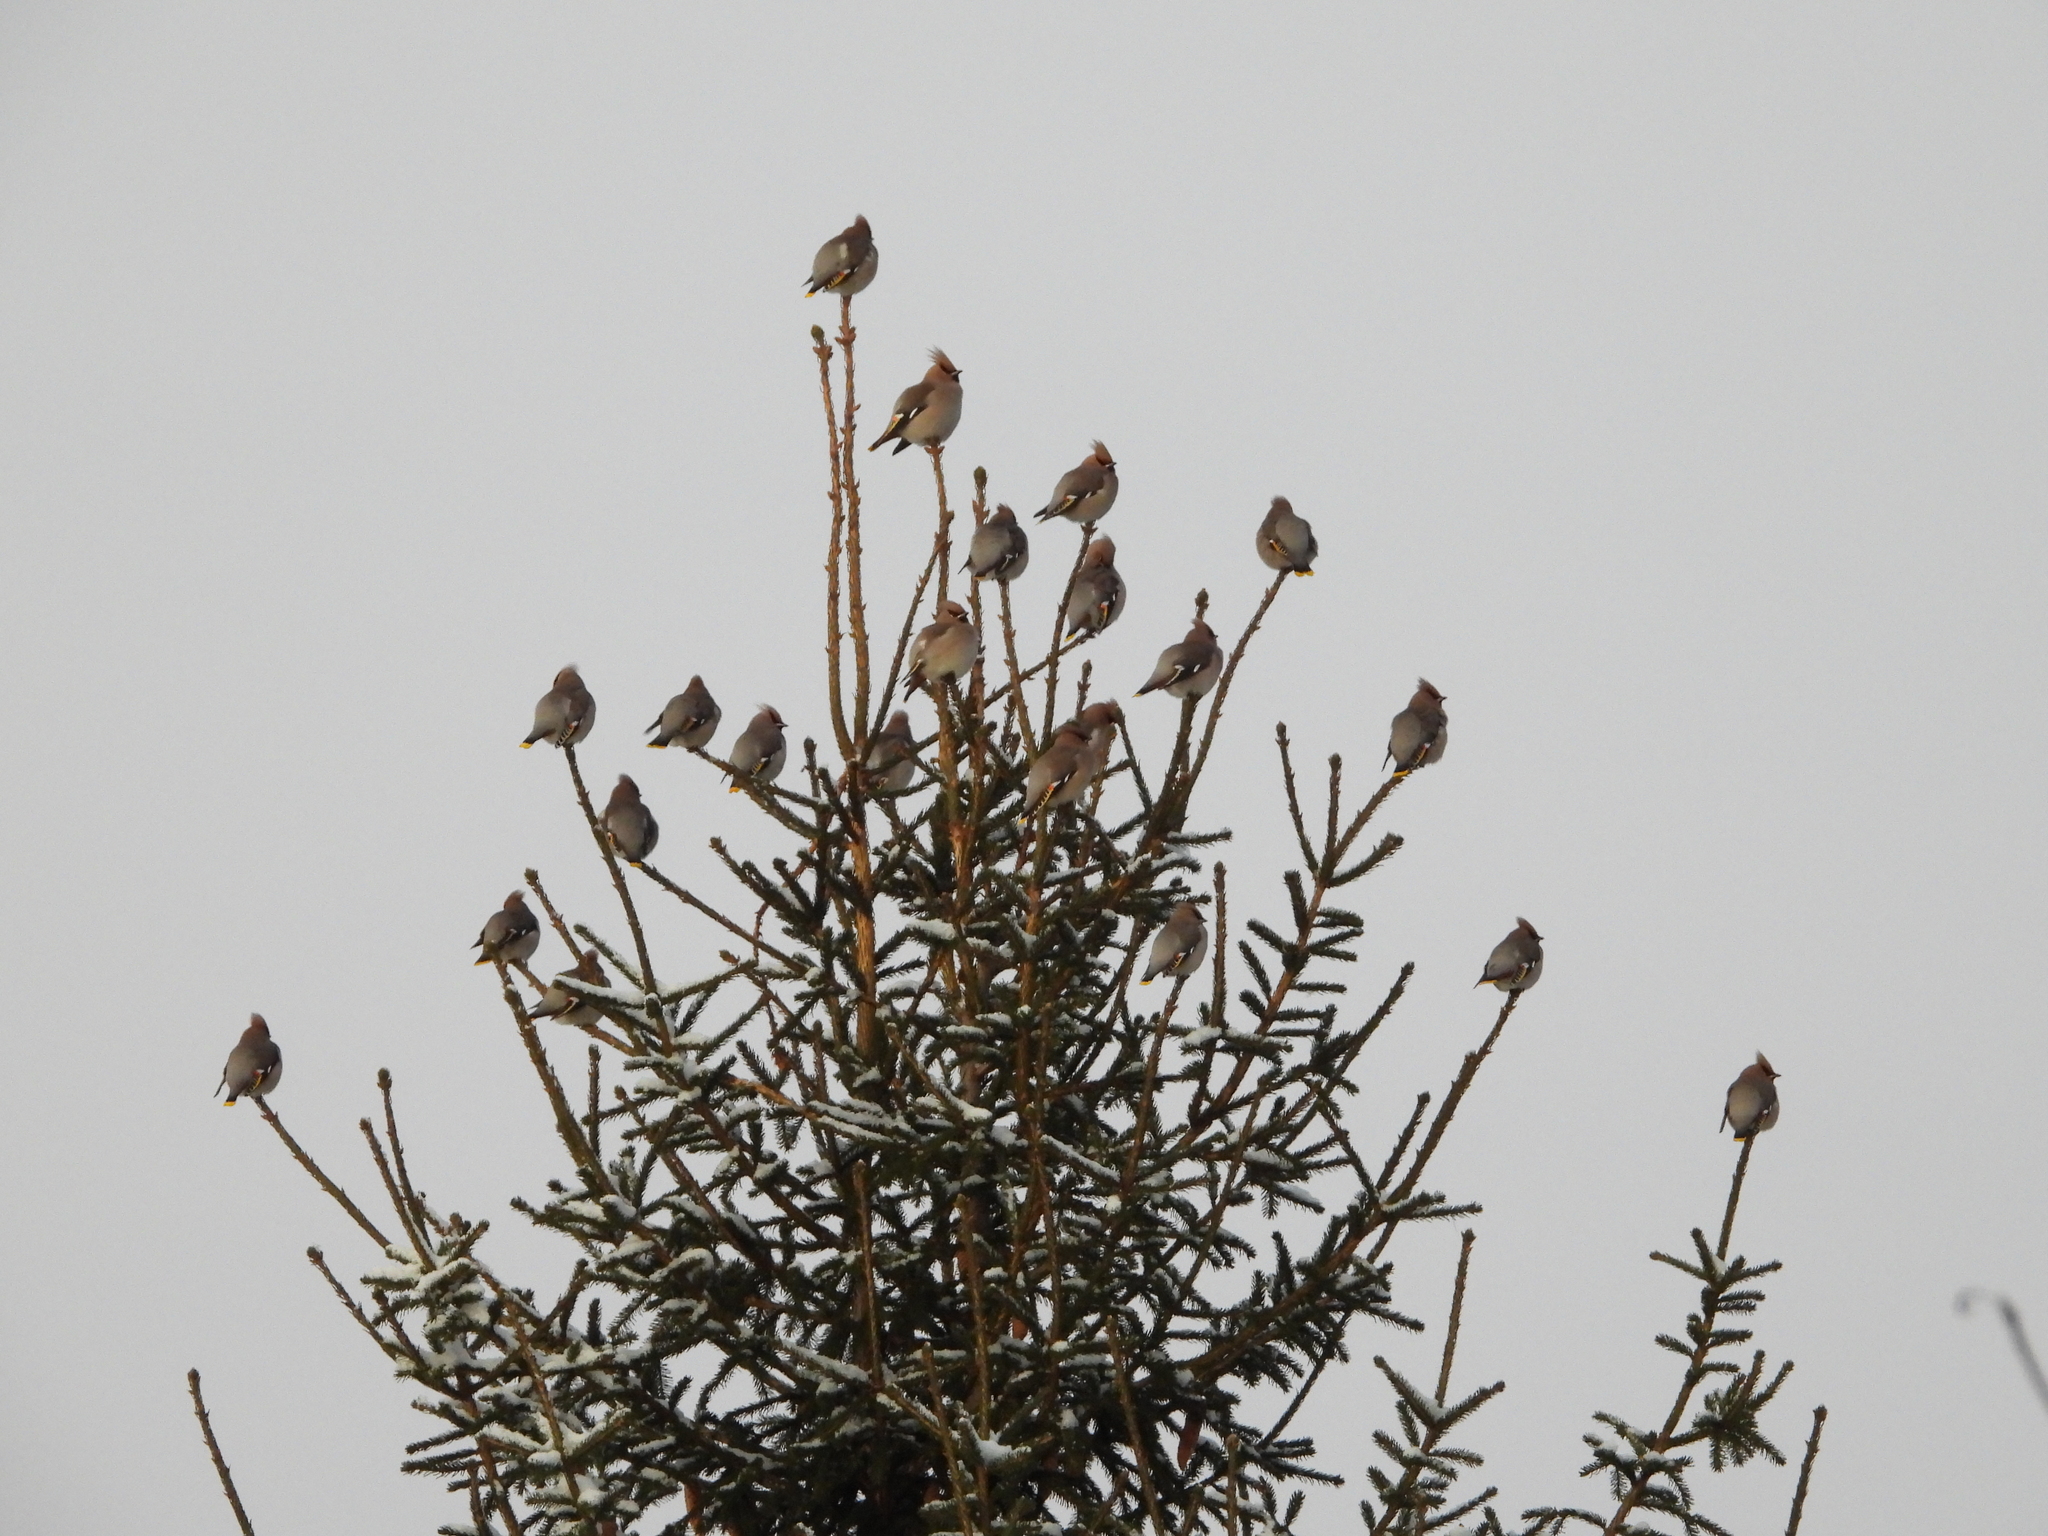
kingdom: Animalia
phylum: Chordata
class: Aves
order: Passeriformes
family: Bombycillidae
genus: Bombycilla
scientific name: Bombycilla garrulus
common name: Bohemian waxwing
